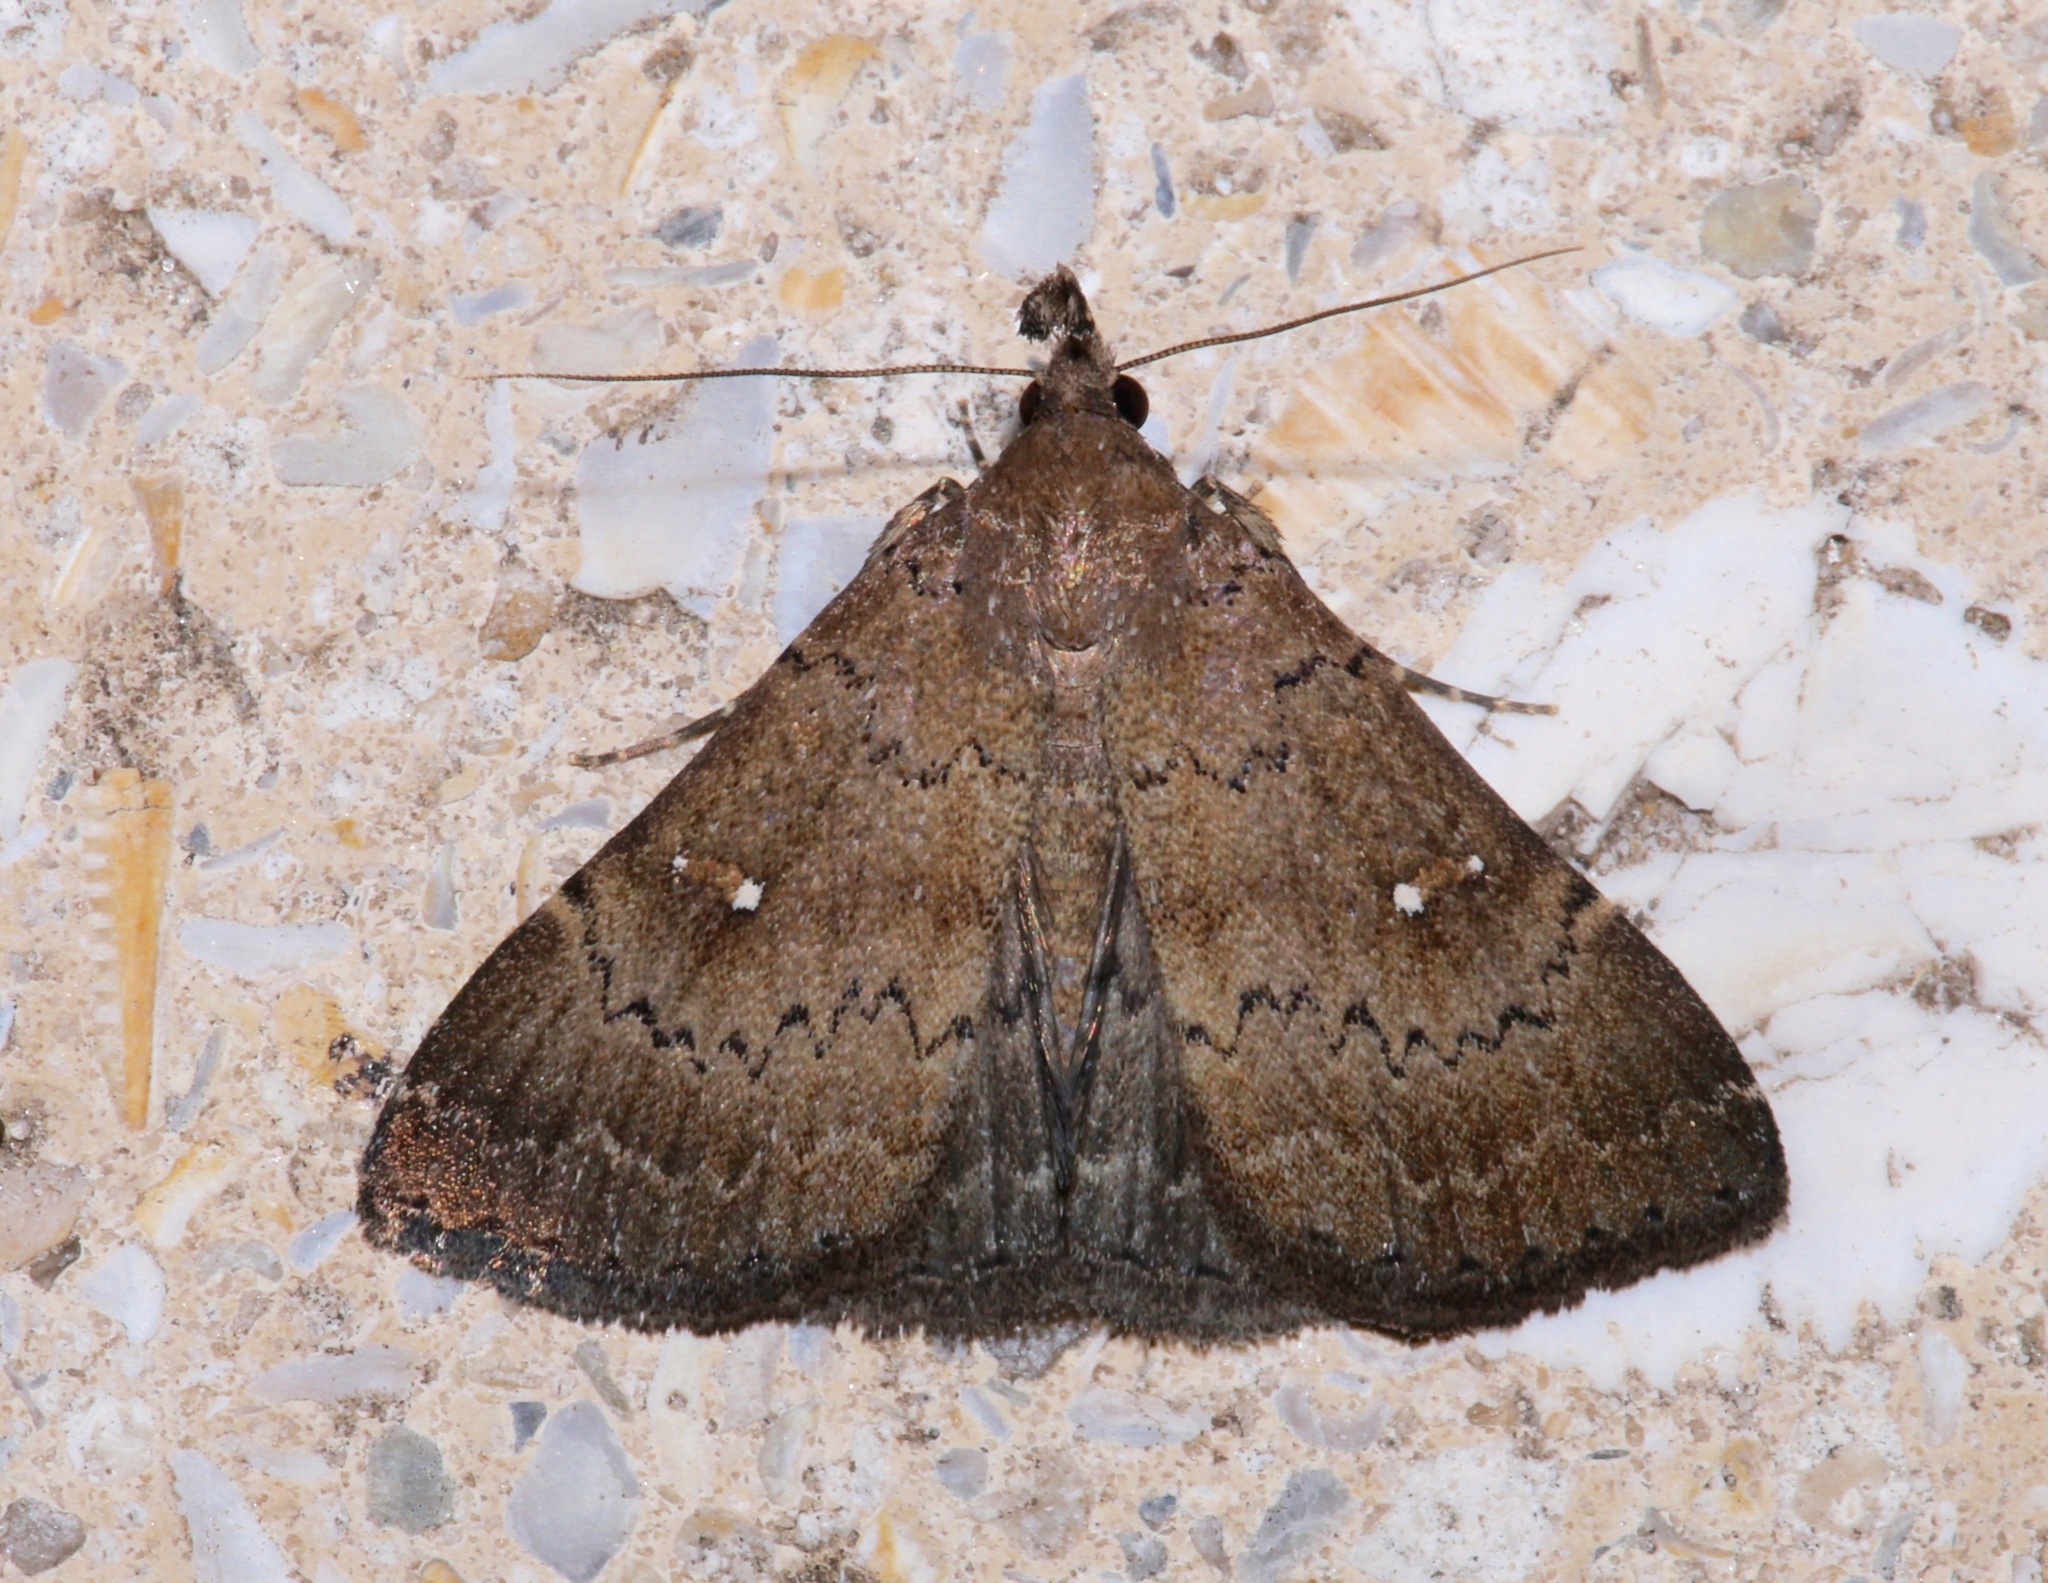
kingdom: Animalia
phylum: Arthropoda
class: Insecta
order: Lepidoptera
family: Erebidae
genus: Hypenula
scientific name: Hypenula cacuminalis
